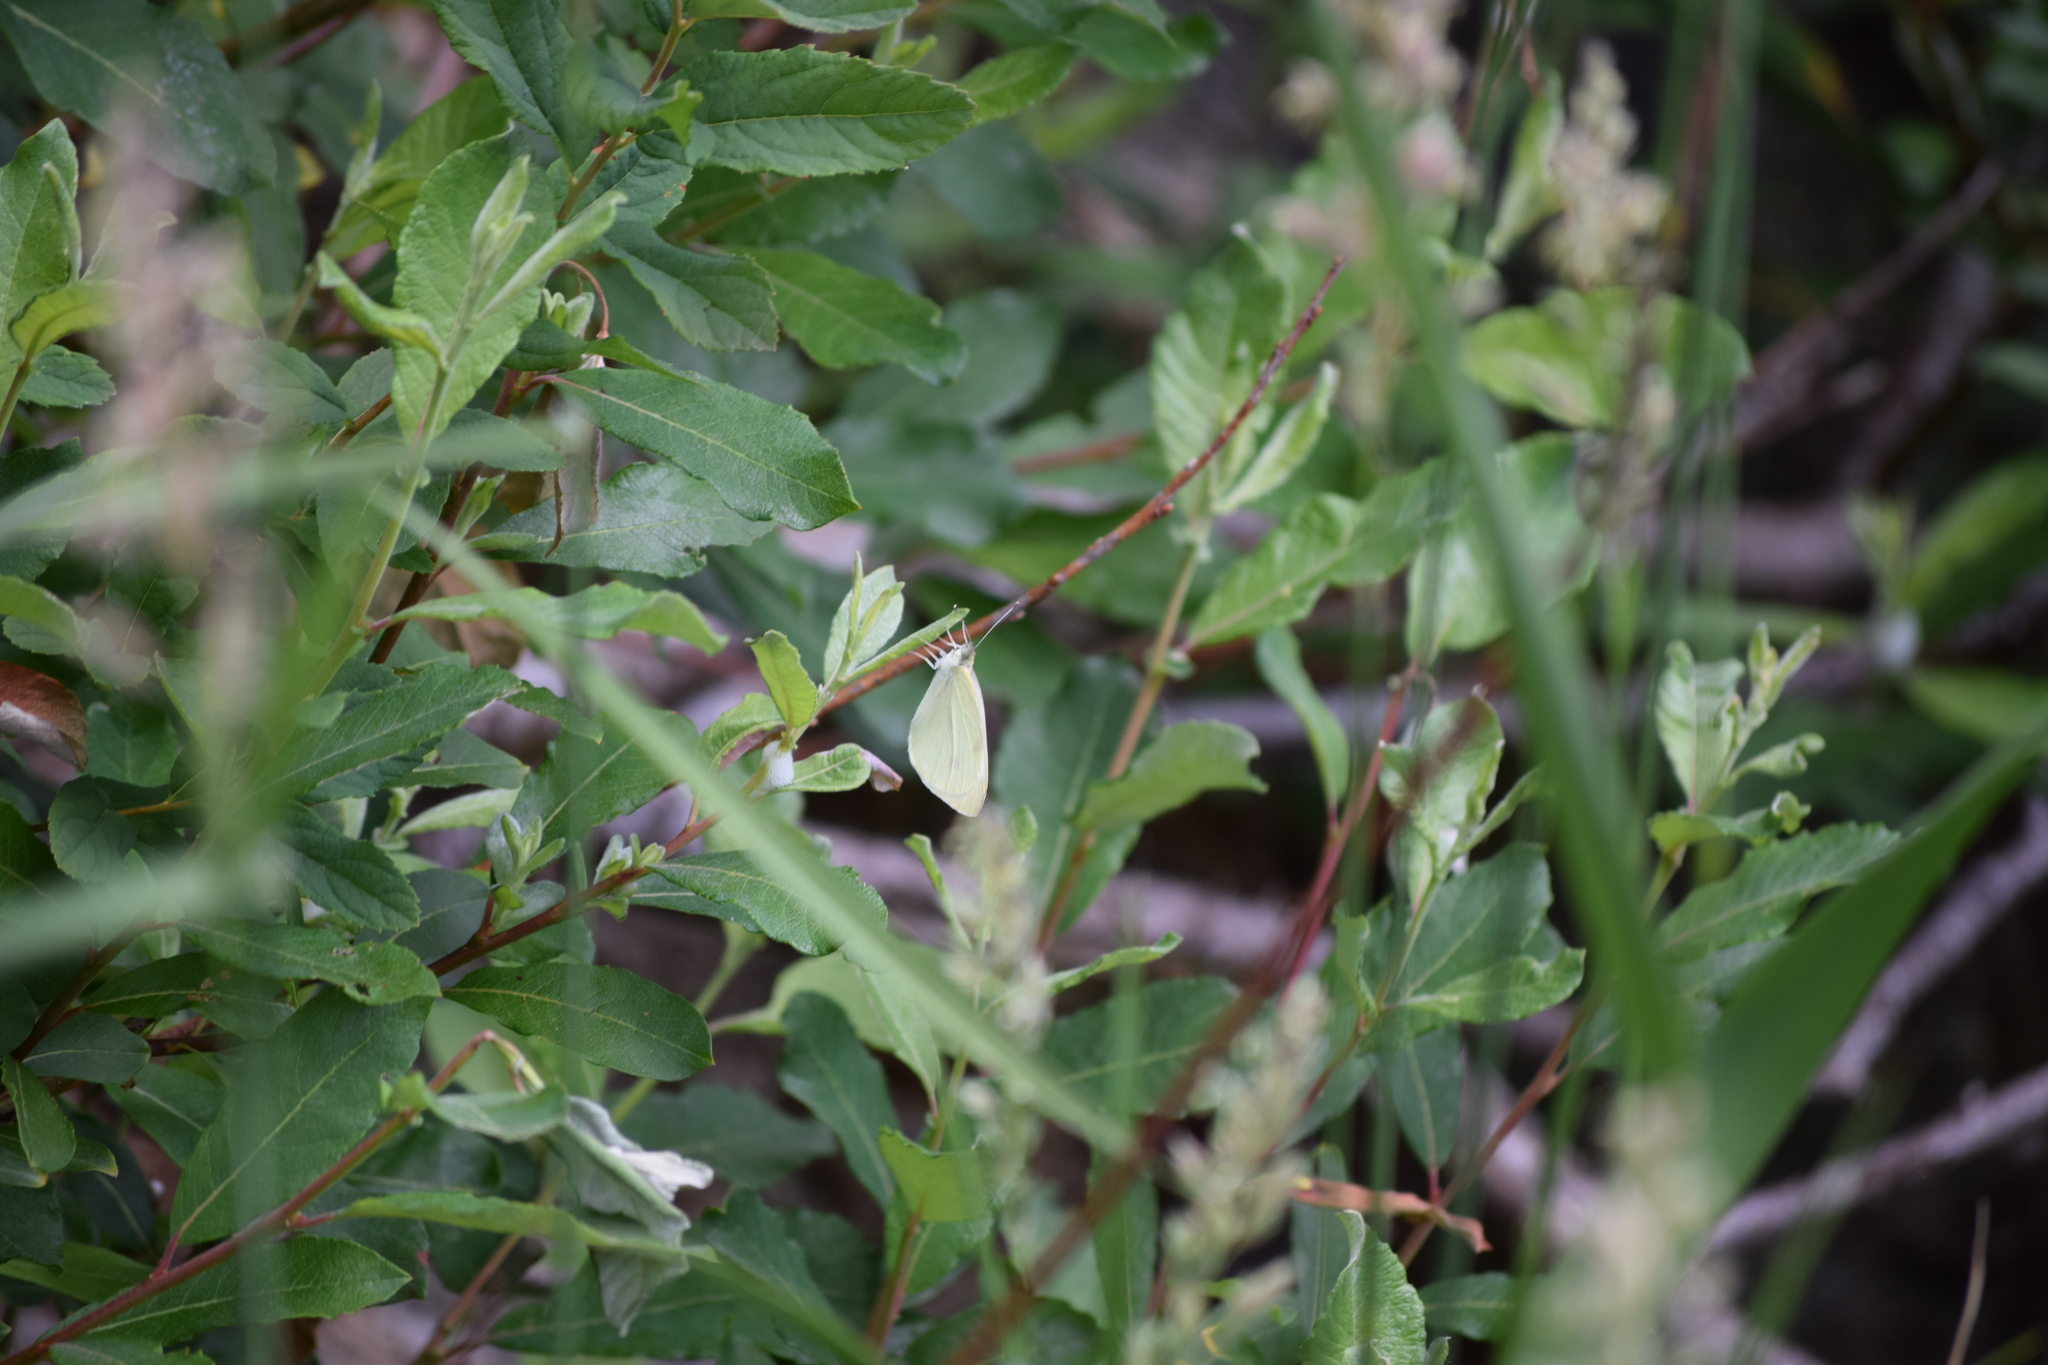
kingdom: Animalia
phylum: Arthropoda
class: Insecta
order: Lepidoptera
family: Pieridae
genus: Pieris
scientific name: Pieris rapae
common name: Small white
